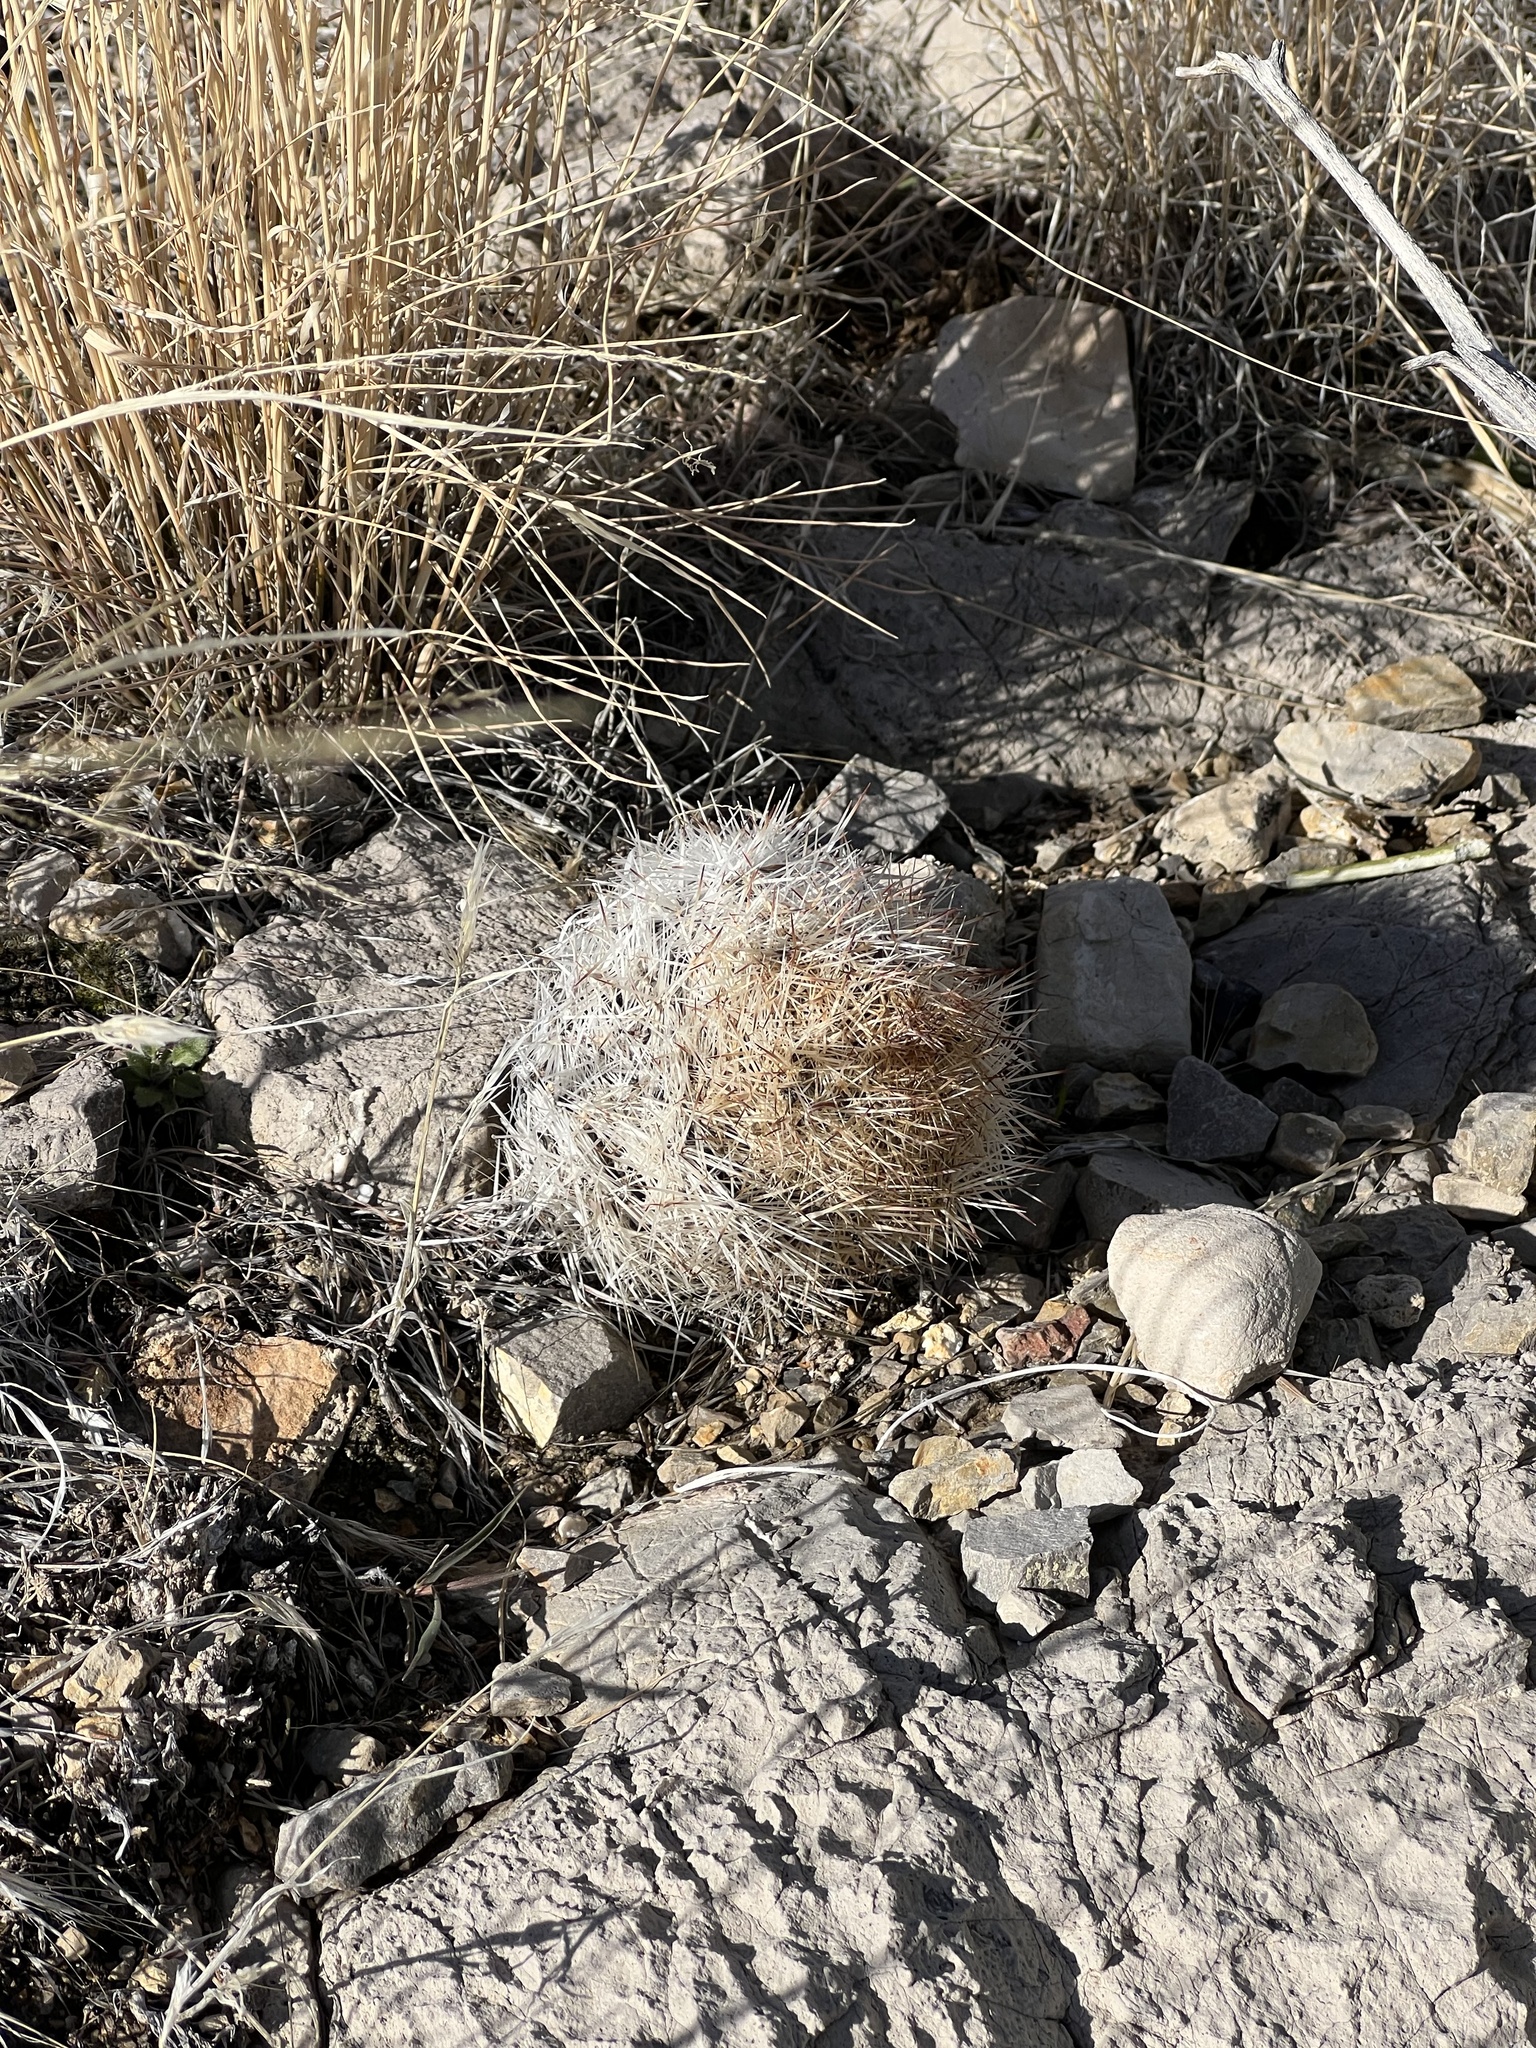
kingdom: Plantae
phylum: Tracheophyta
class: Magnoliopsida
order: Caryophyllales
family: Cactaceae
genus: Pelecyphora
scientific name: Pelecyphora dasyacantha
